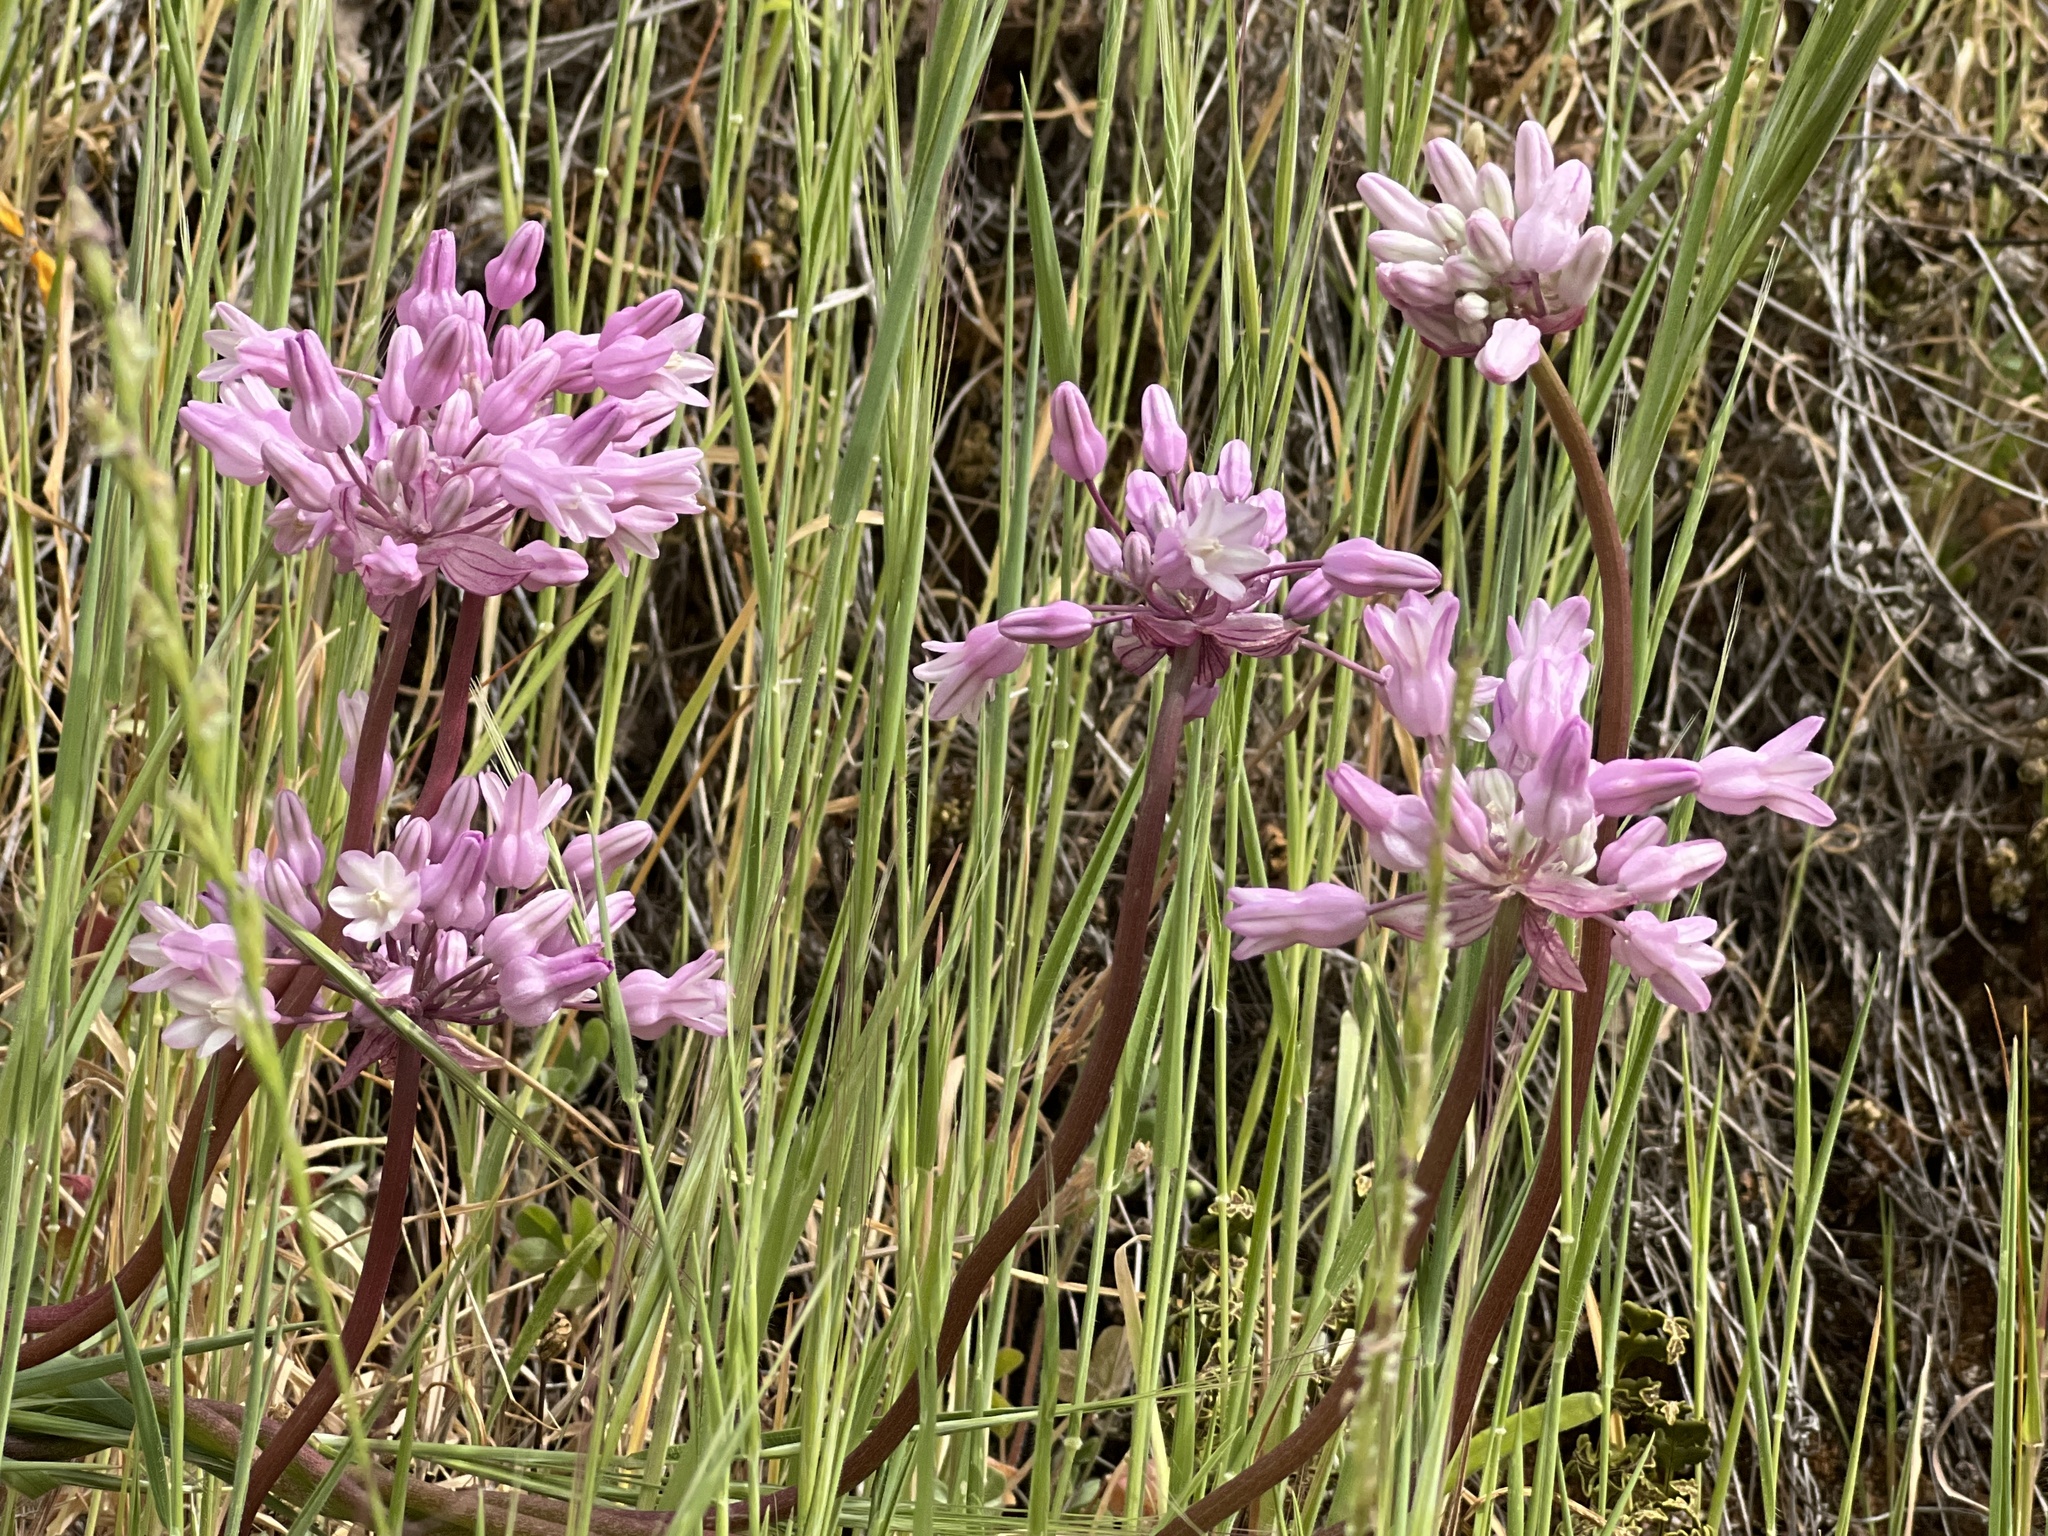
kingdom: Plantae
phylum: Tracheophyta
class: Liliopsida
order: Asparagales
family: Asparagaceae
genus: Dichelostemma
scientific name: Dichelostemma volubile
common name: Trining brodiaea
